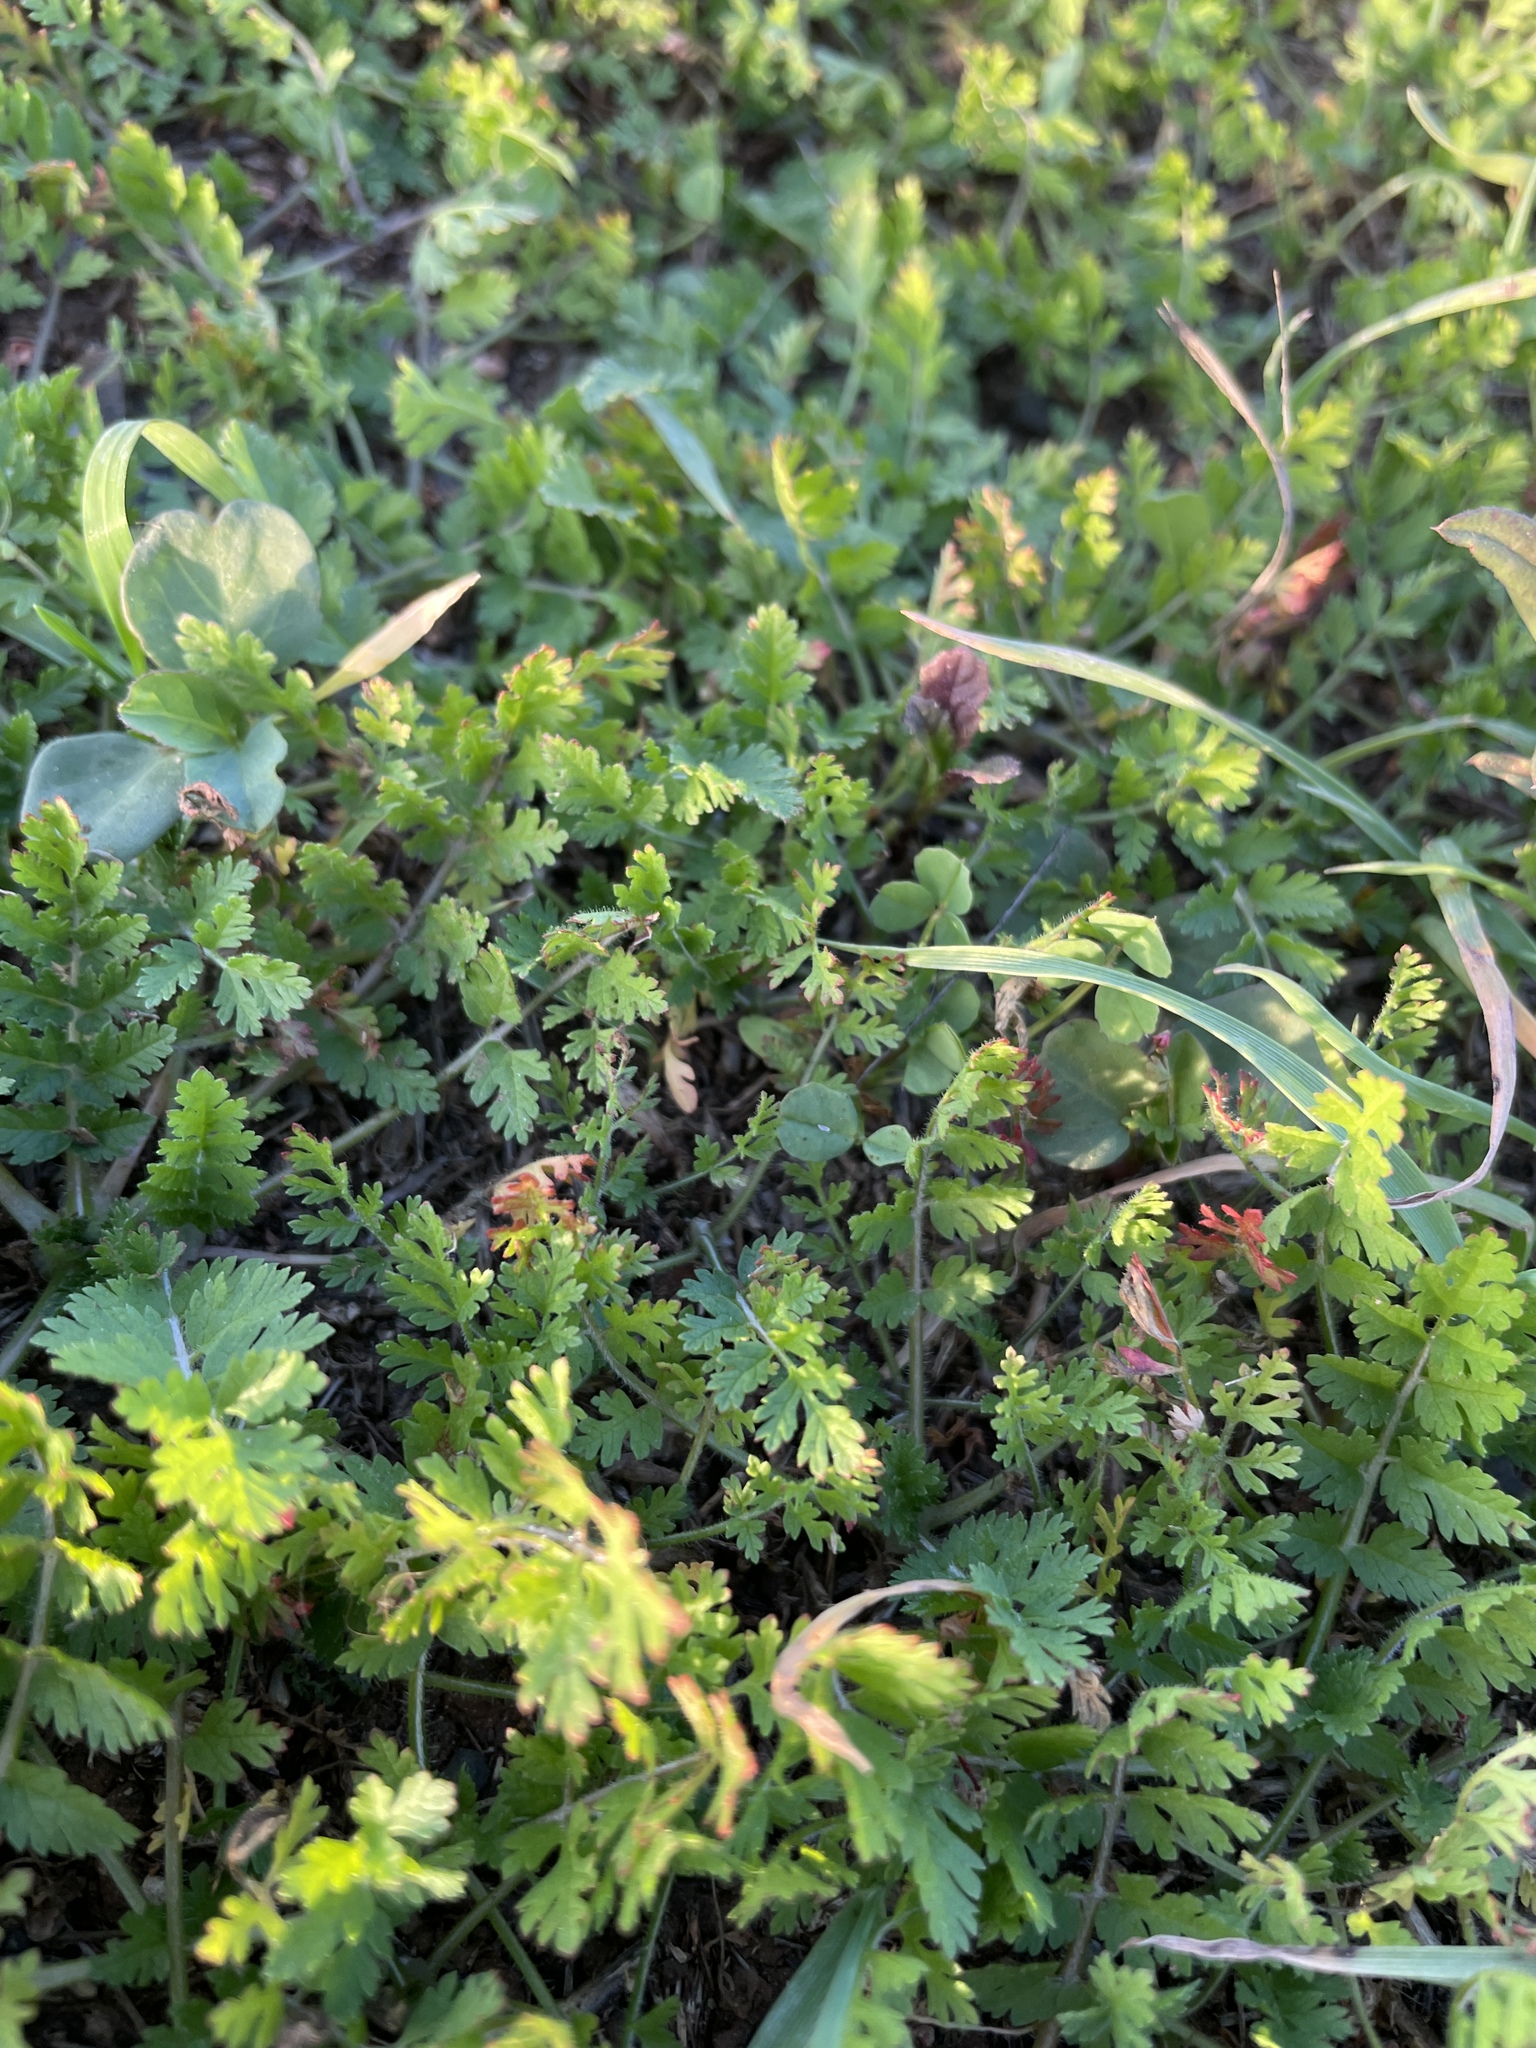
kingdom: Plantae
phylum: Tracheophyta
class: Magnoliopsida
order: Geraniales
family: Geraniaceae
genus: Erodium
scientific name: Erodium moschatum
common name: Musk stork's-bill
